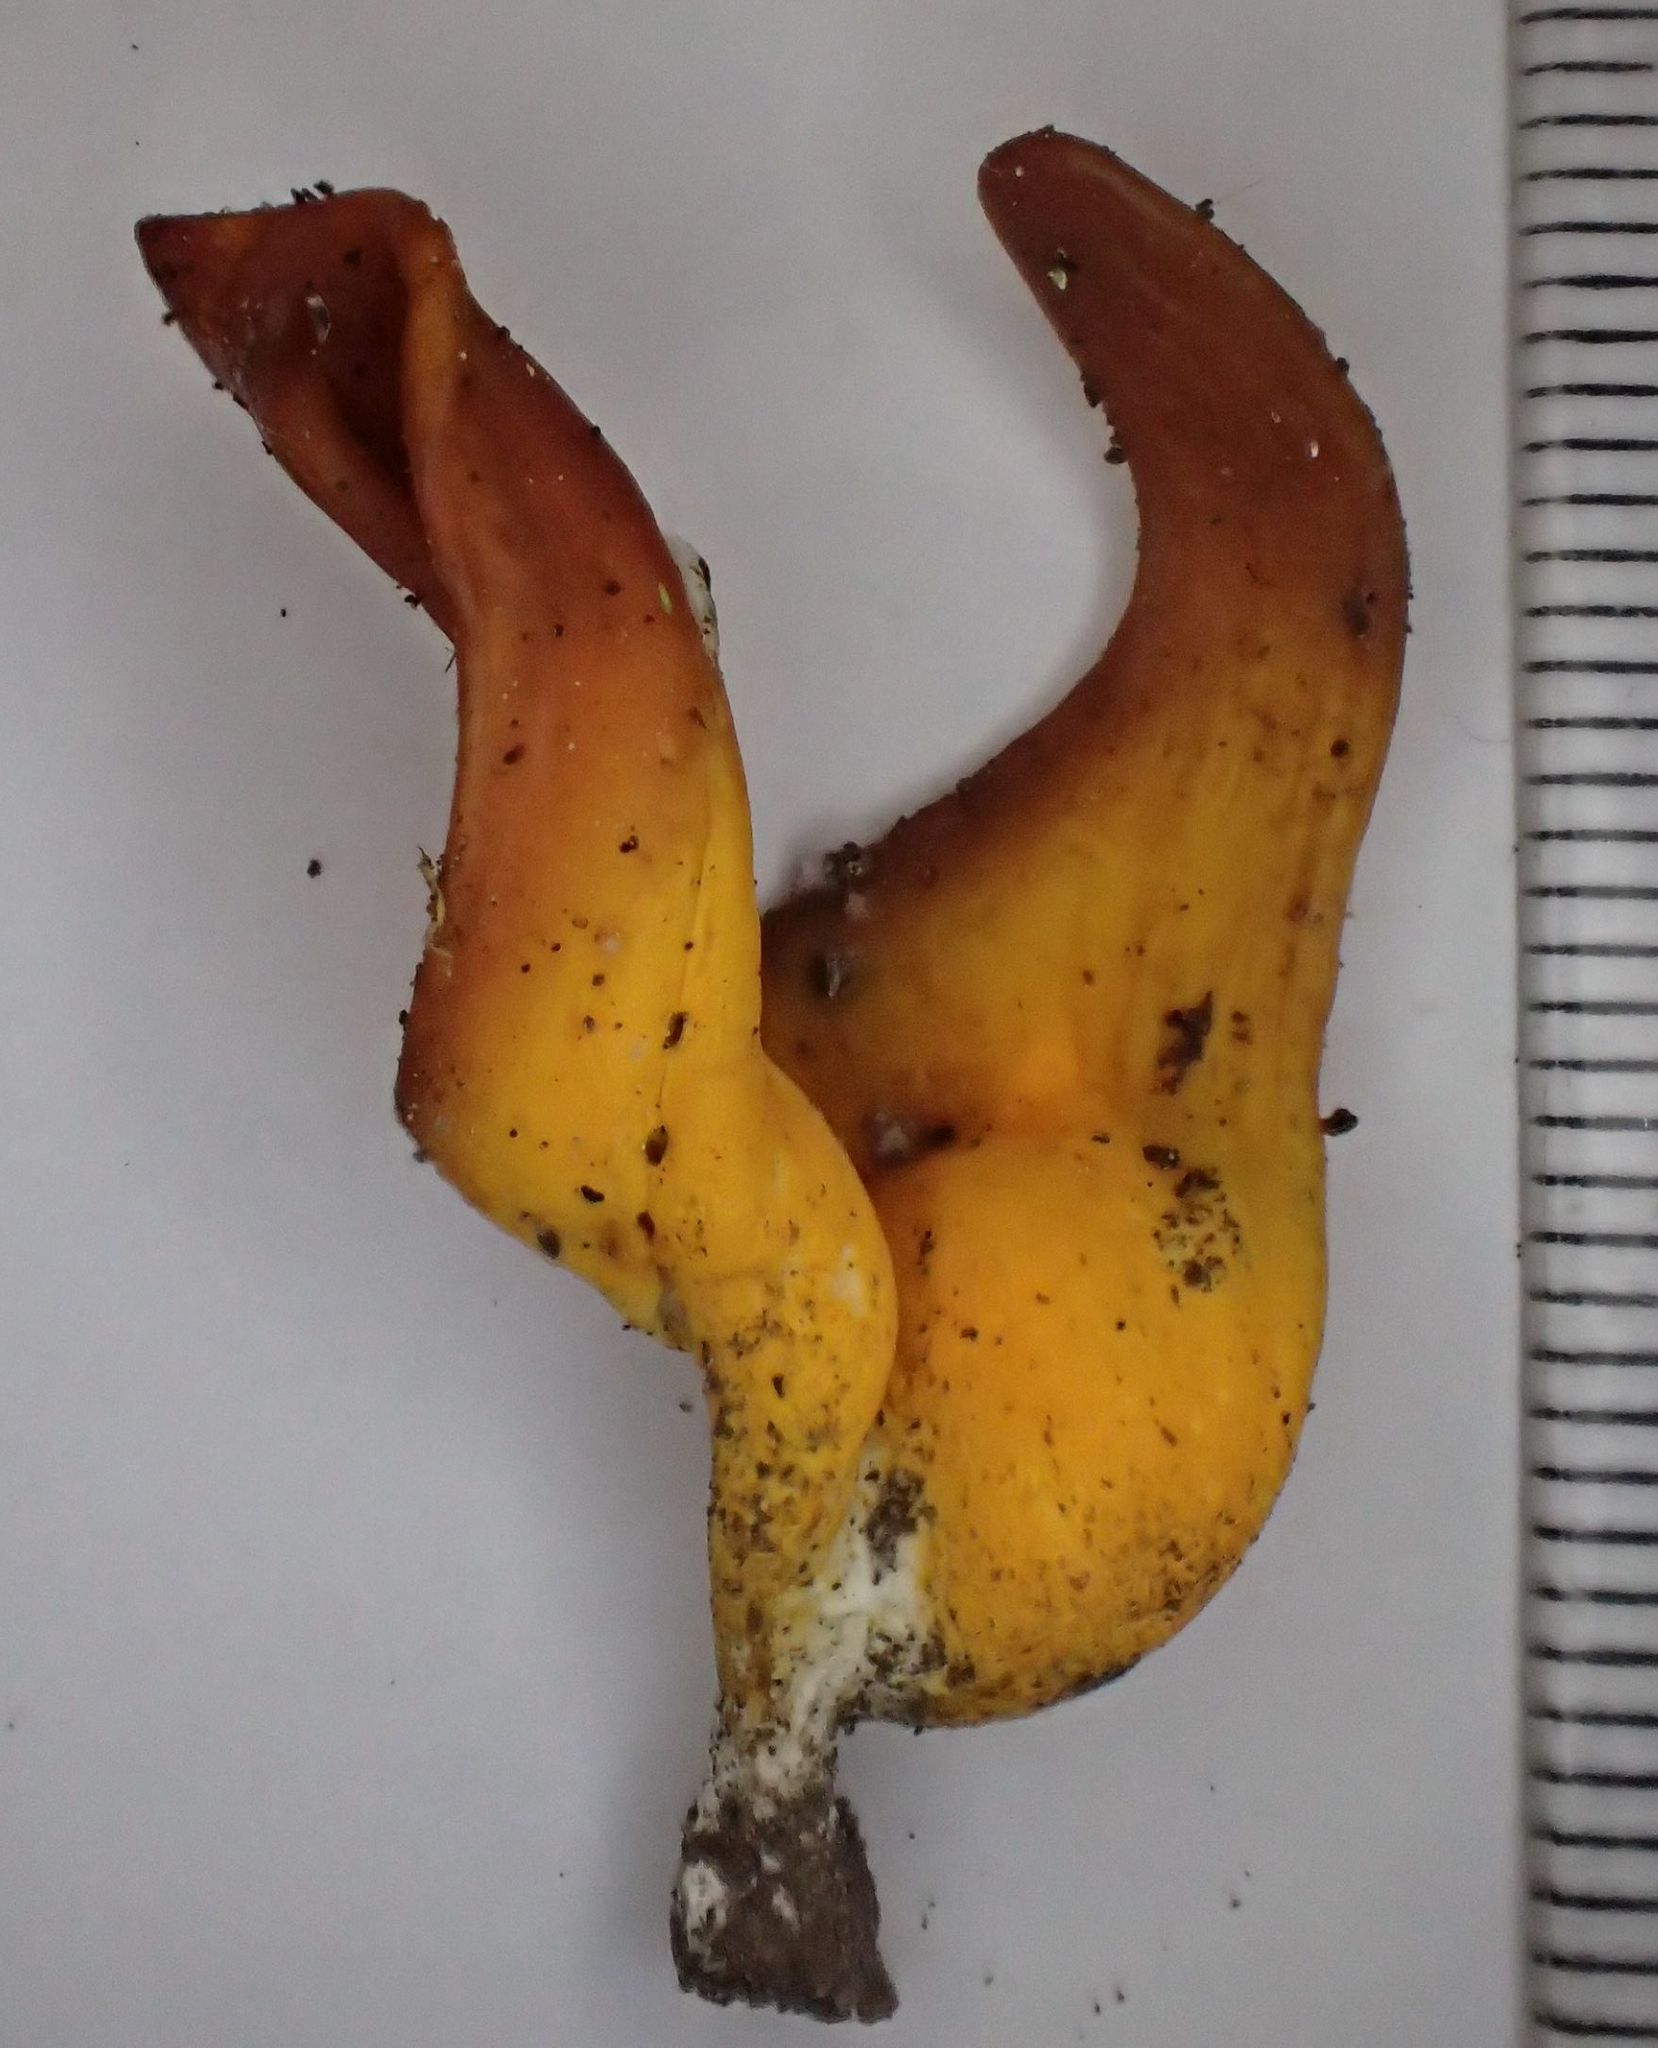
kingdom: Fungi
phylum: Basidiomycota
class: Agaricomycetes
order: Agaricales
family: Clavariaceae
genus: Clavulinopsis
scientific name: Clavulinopsis sulcata
